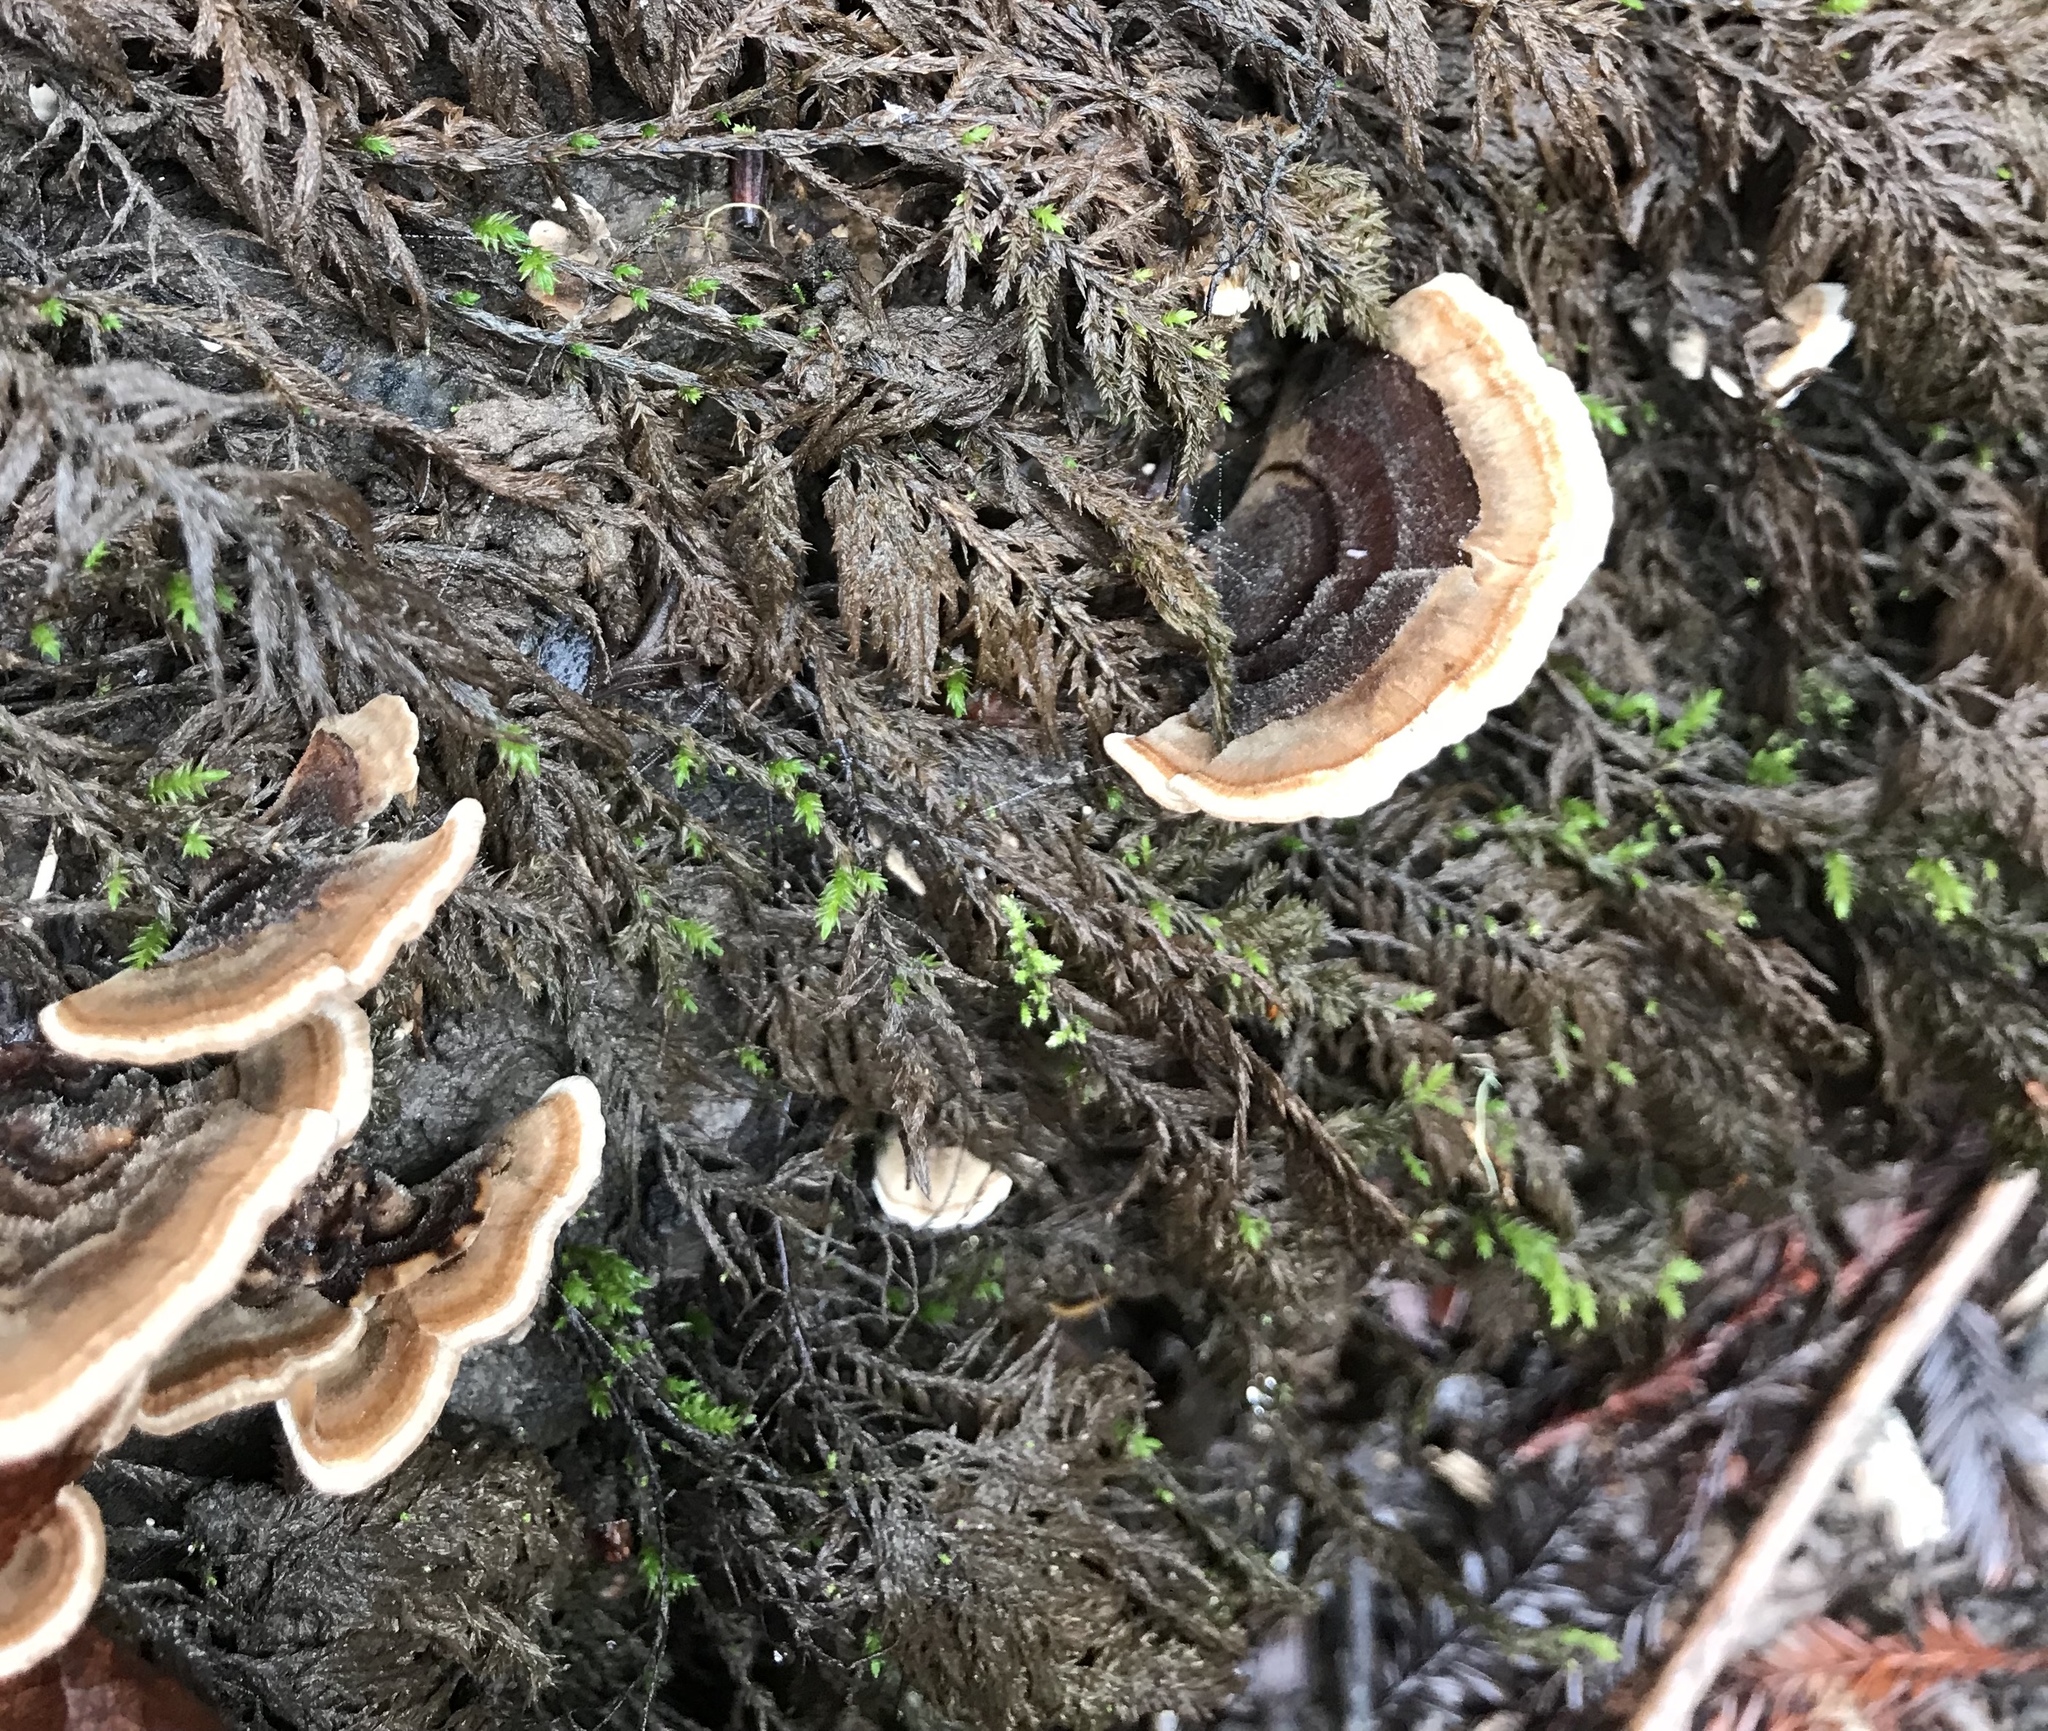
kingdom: Fungi
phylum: Basidiomycota
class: Agaricomycetes
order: Polyporales
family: Polyporaceae
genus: Trametes
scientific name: Trametes versicolor
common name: Turkeytail
